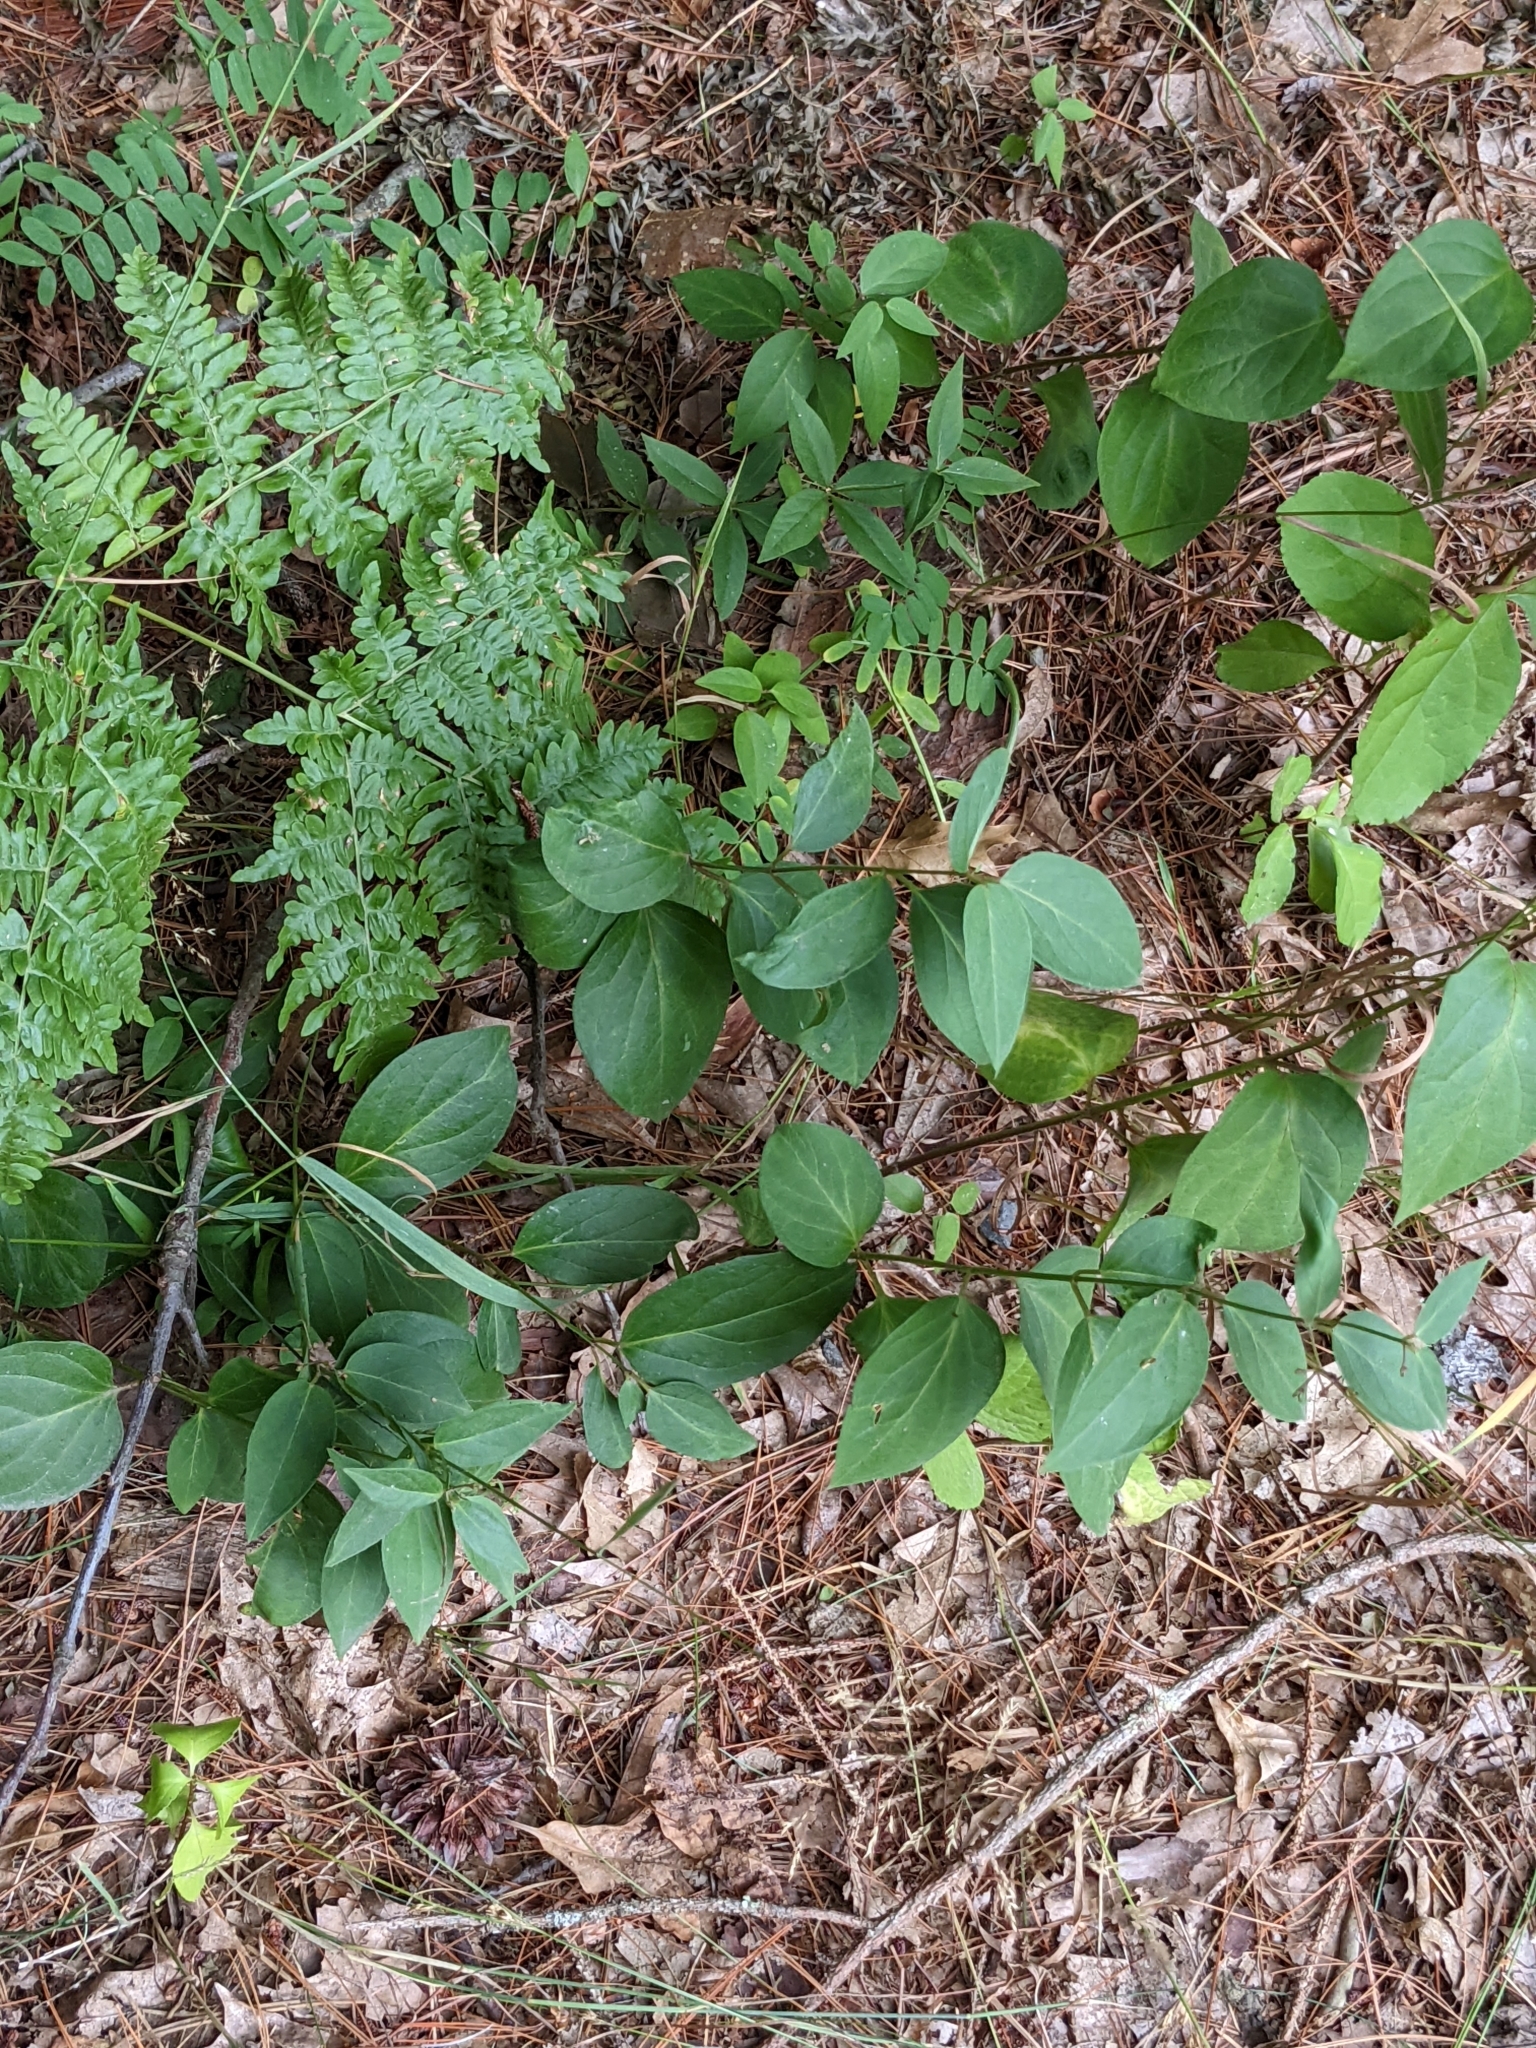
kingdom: Plantae
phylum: Tracheophyta
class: Magnoliopsida
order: Gentianales
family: Apocynaceae
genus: Vincetoxicum
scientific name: Vincetoxicum nigrum
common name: Black swallow-wort
